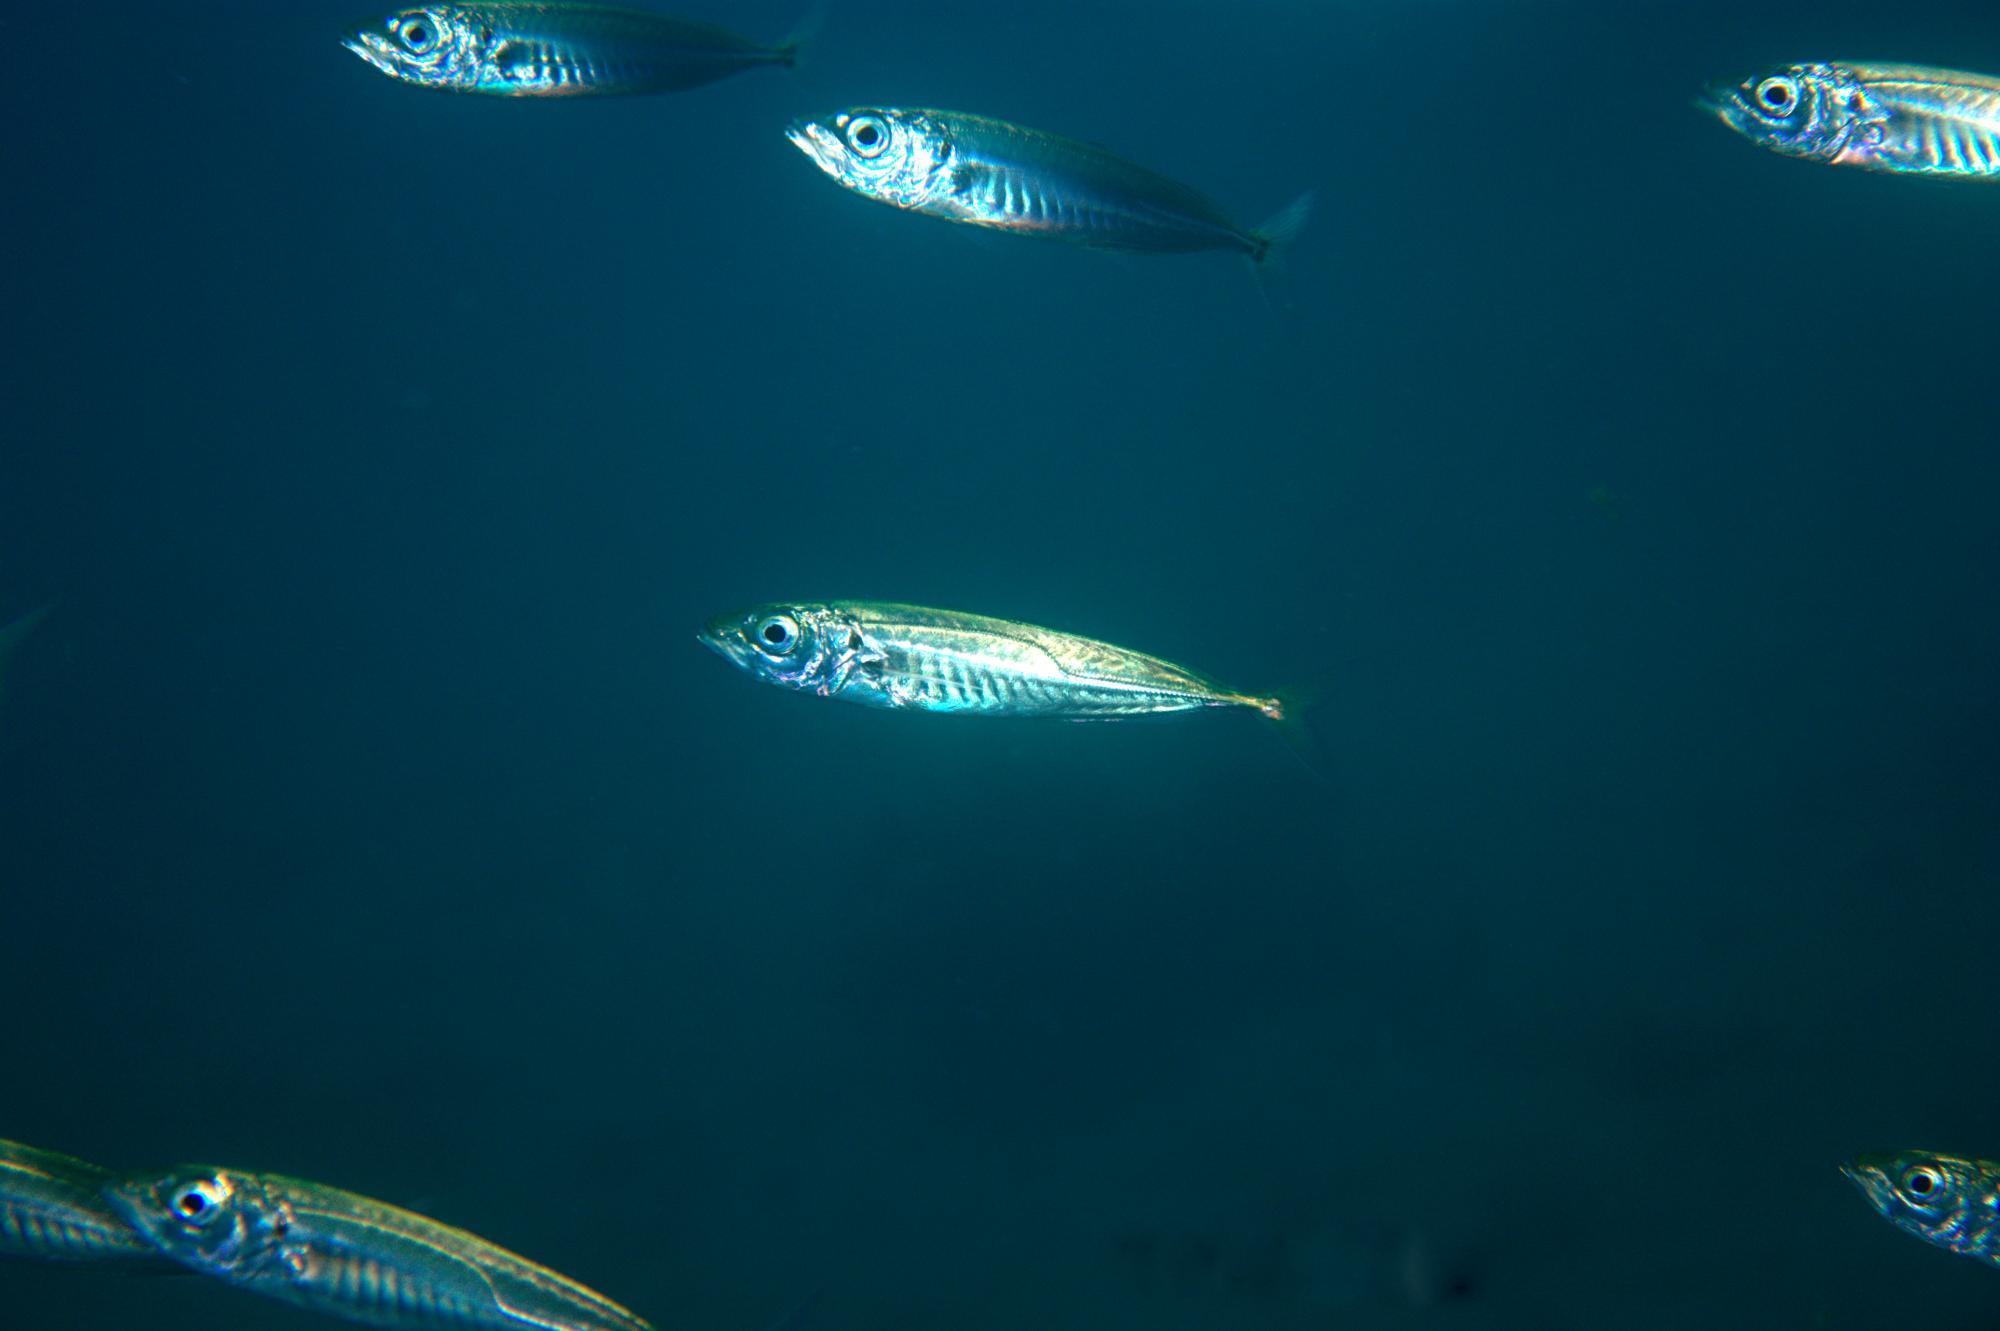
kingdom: Animalia
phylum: Chordata
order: Perciformes
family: Carangidae
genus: Trachurus
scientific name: Trachurus symmetricus
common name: Jack mackerel
